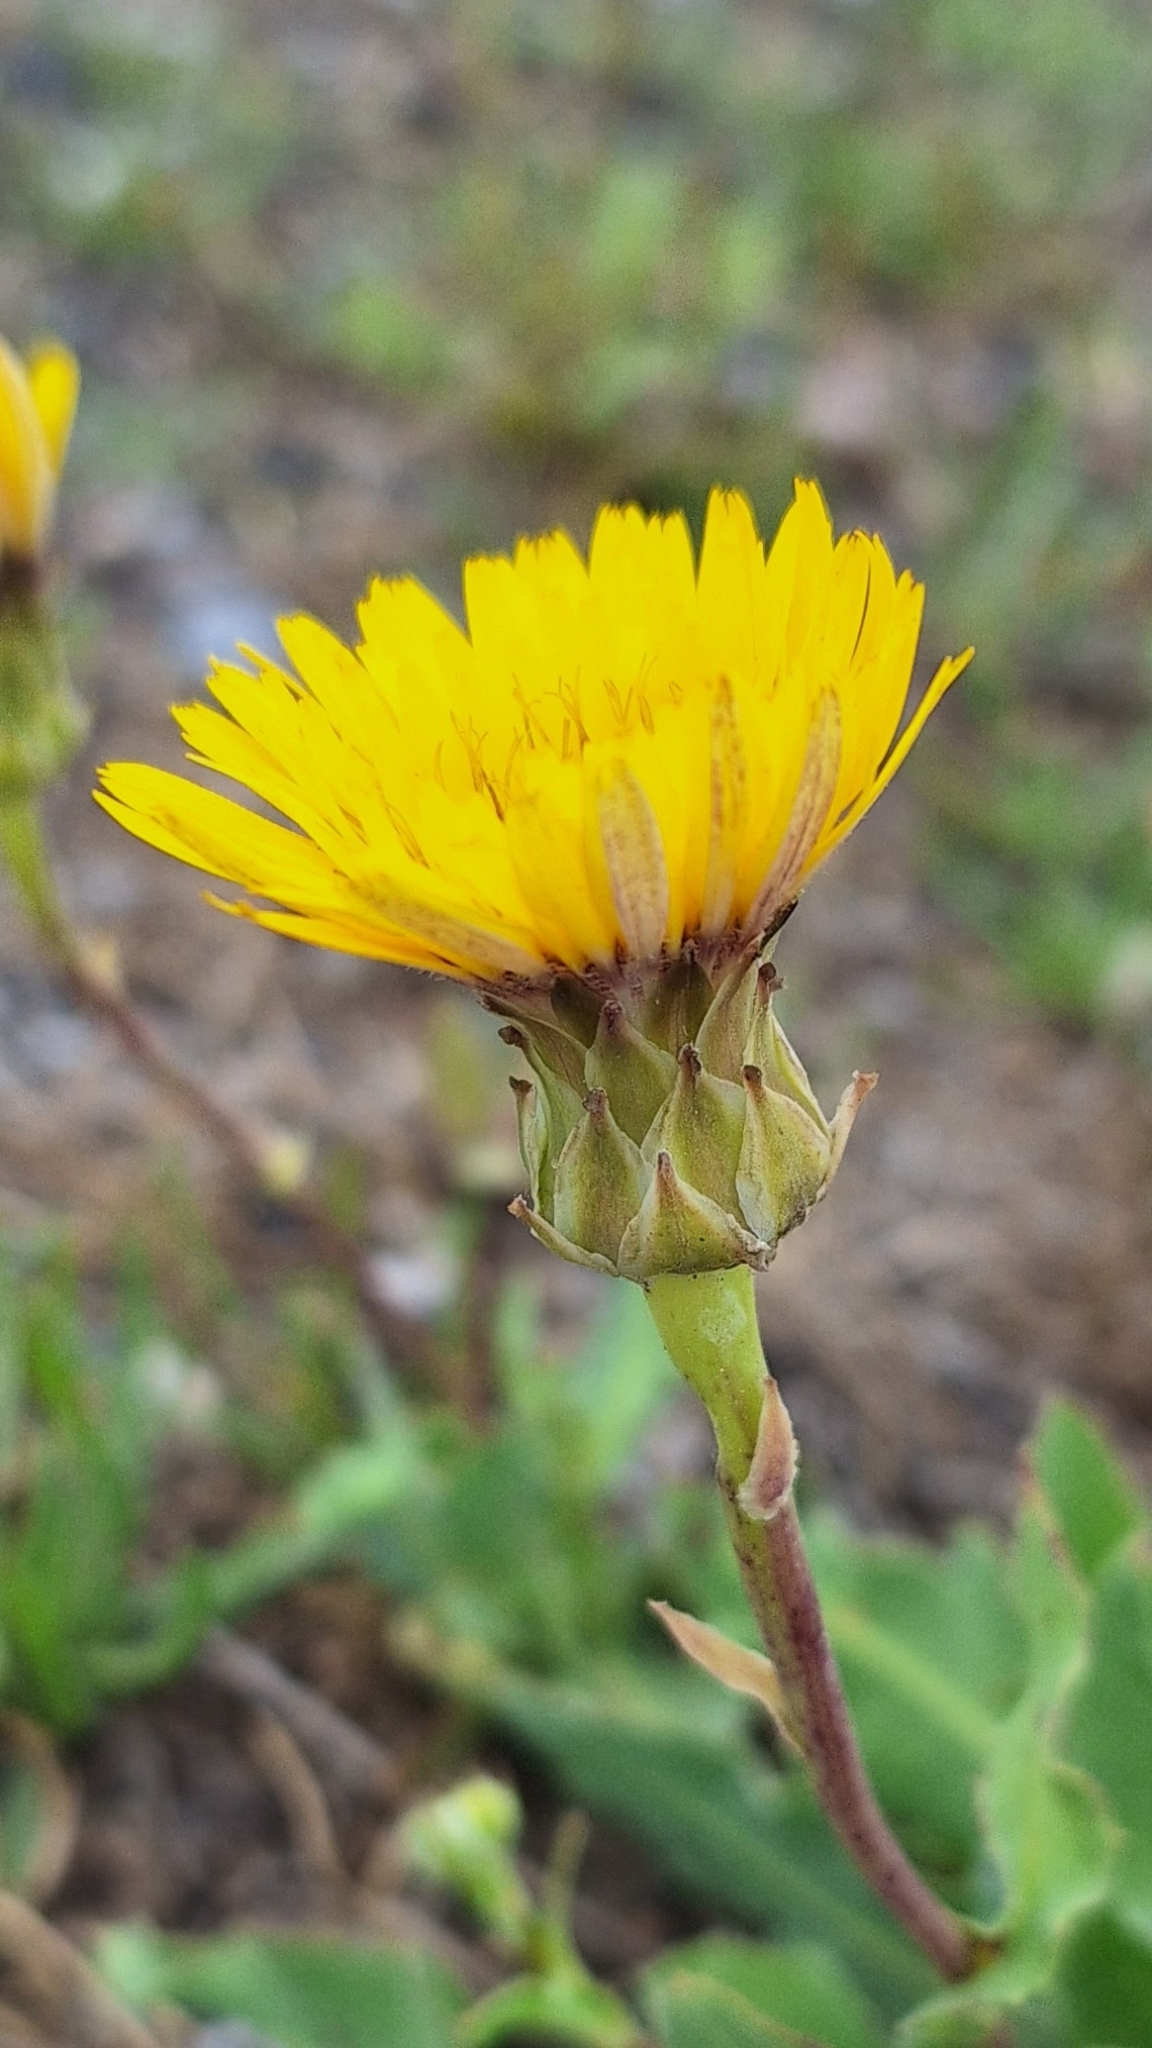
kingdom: Plantae
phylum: Tracheophyta
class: Magnoliopsida
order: Asterales
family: Asteraceae
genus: Reichardia
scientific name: Reichardia tingitana
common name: Reichardia
